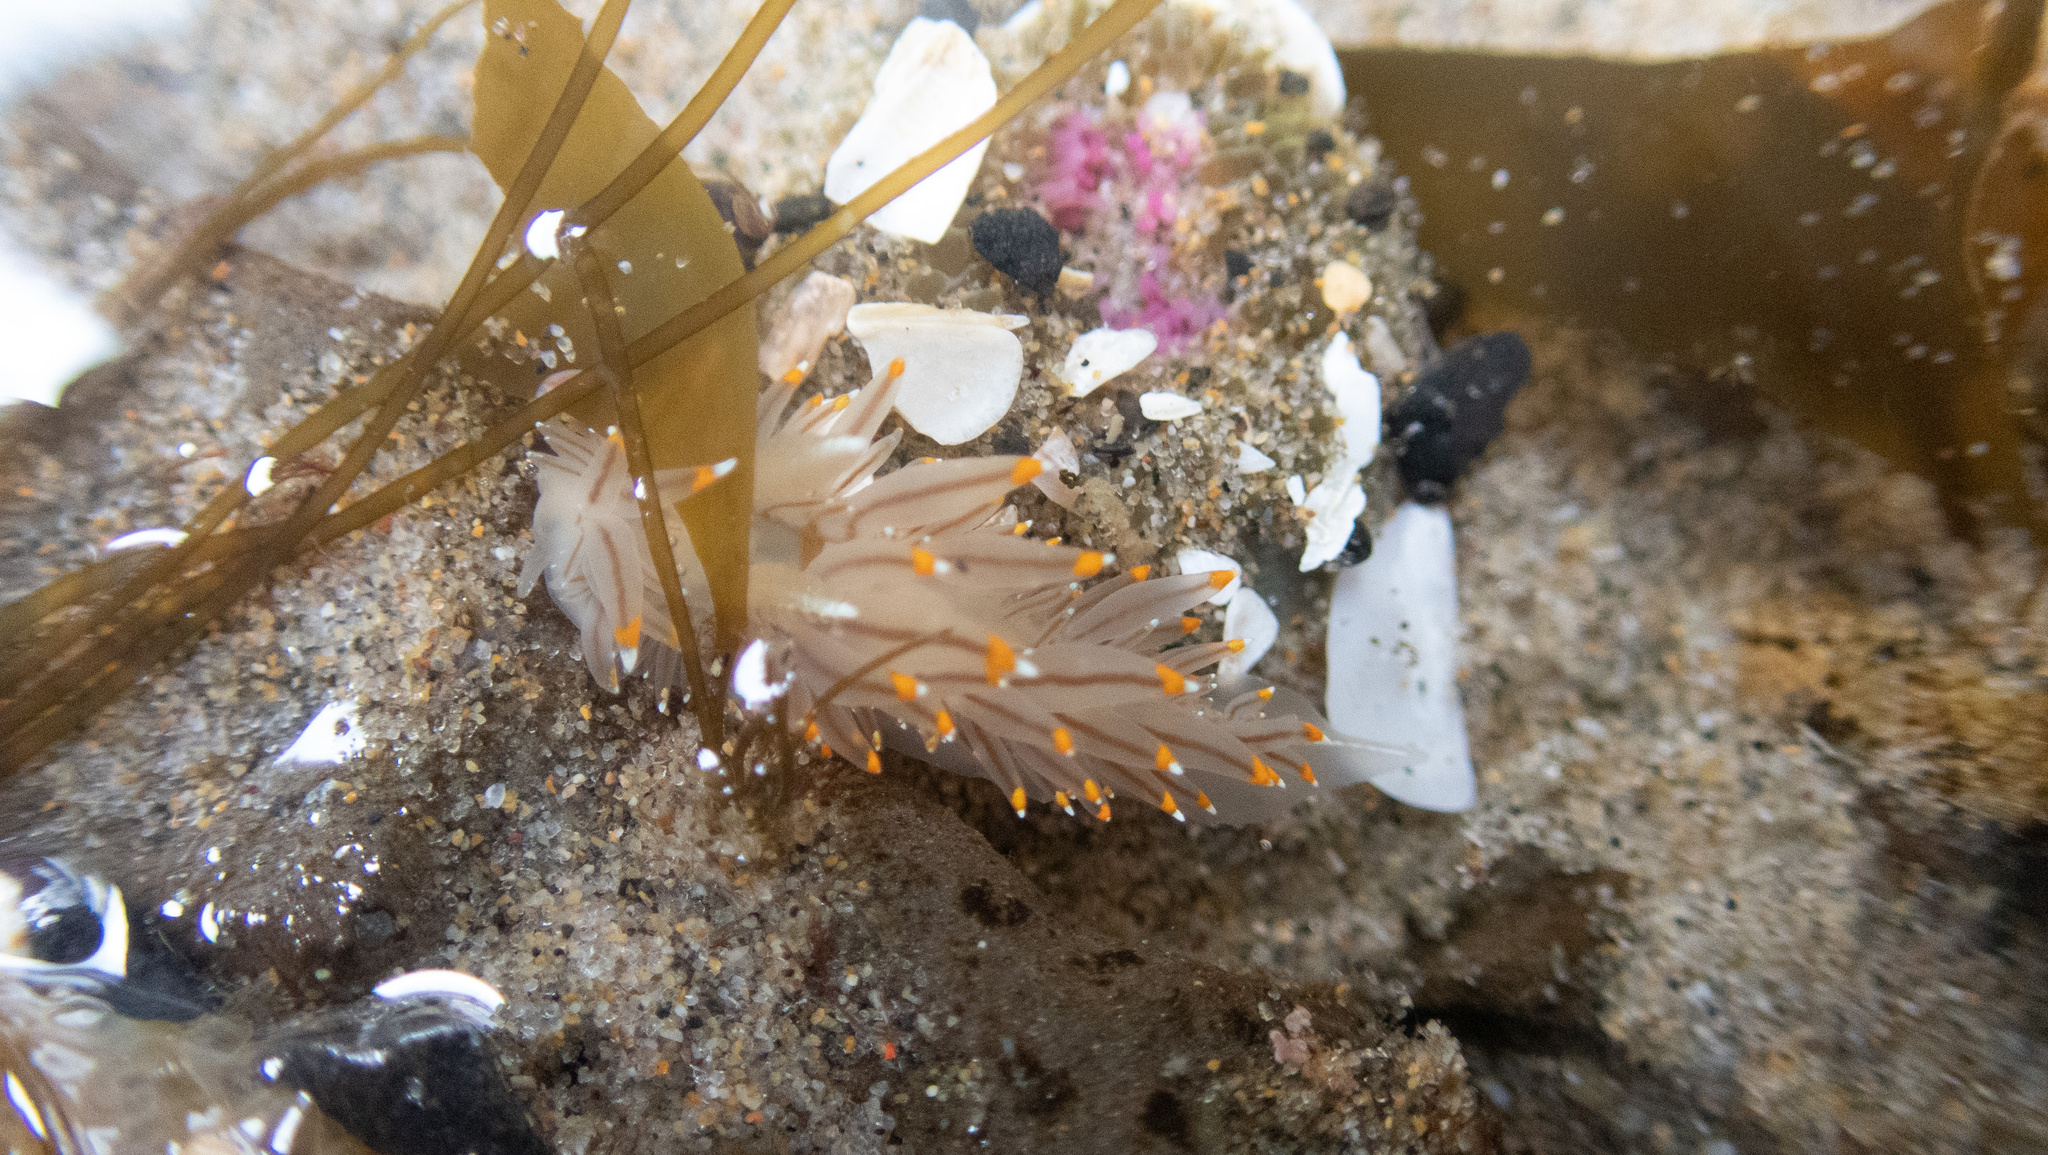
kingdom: Animalia
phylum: Mollusca
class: Gastropoda
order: Nudibranchia
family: Janolidae
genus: Antiopella
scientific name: Antiopella fusca
